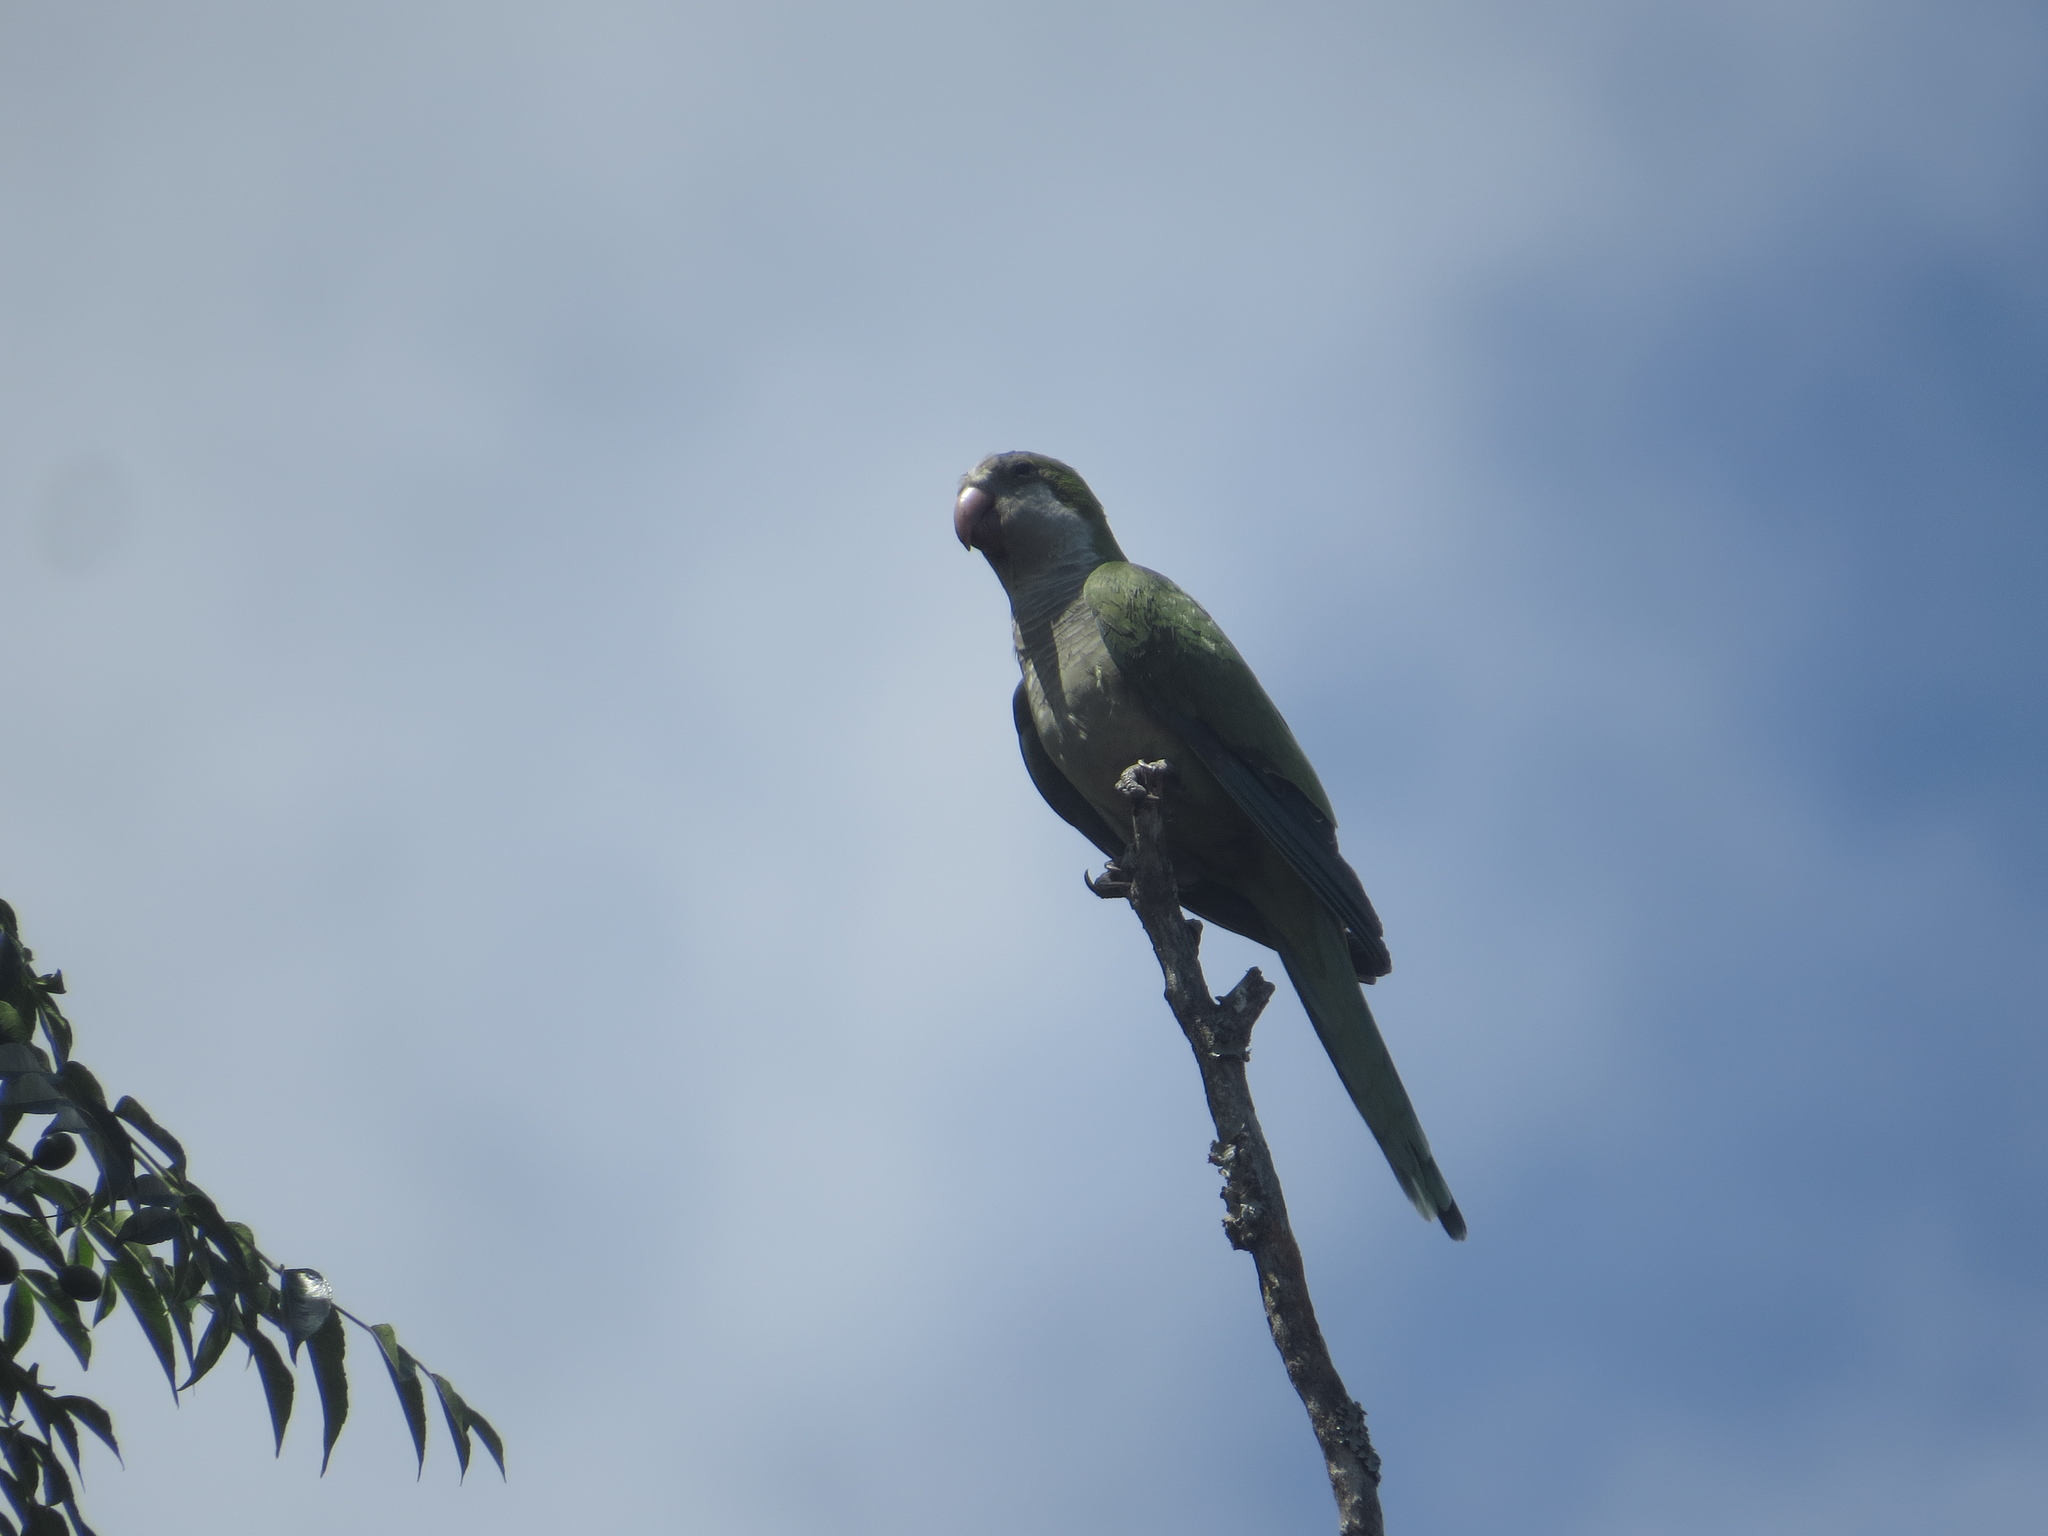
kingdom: Animalia
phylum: Chordata
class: Aves
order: Psittaciformes
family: Psittacidae
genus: Myiopsitta
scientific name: Myiopsitta monachus
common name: Monk parakeet
